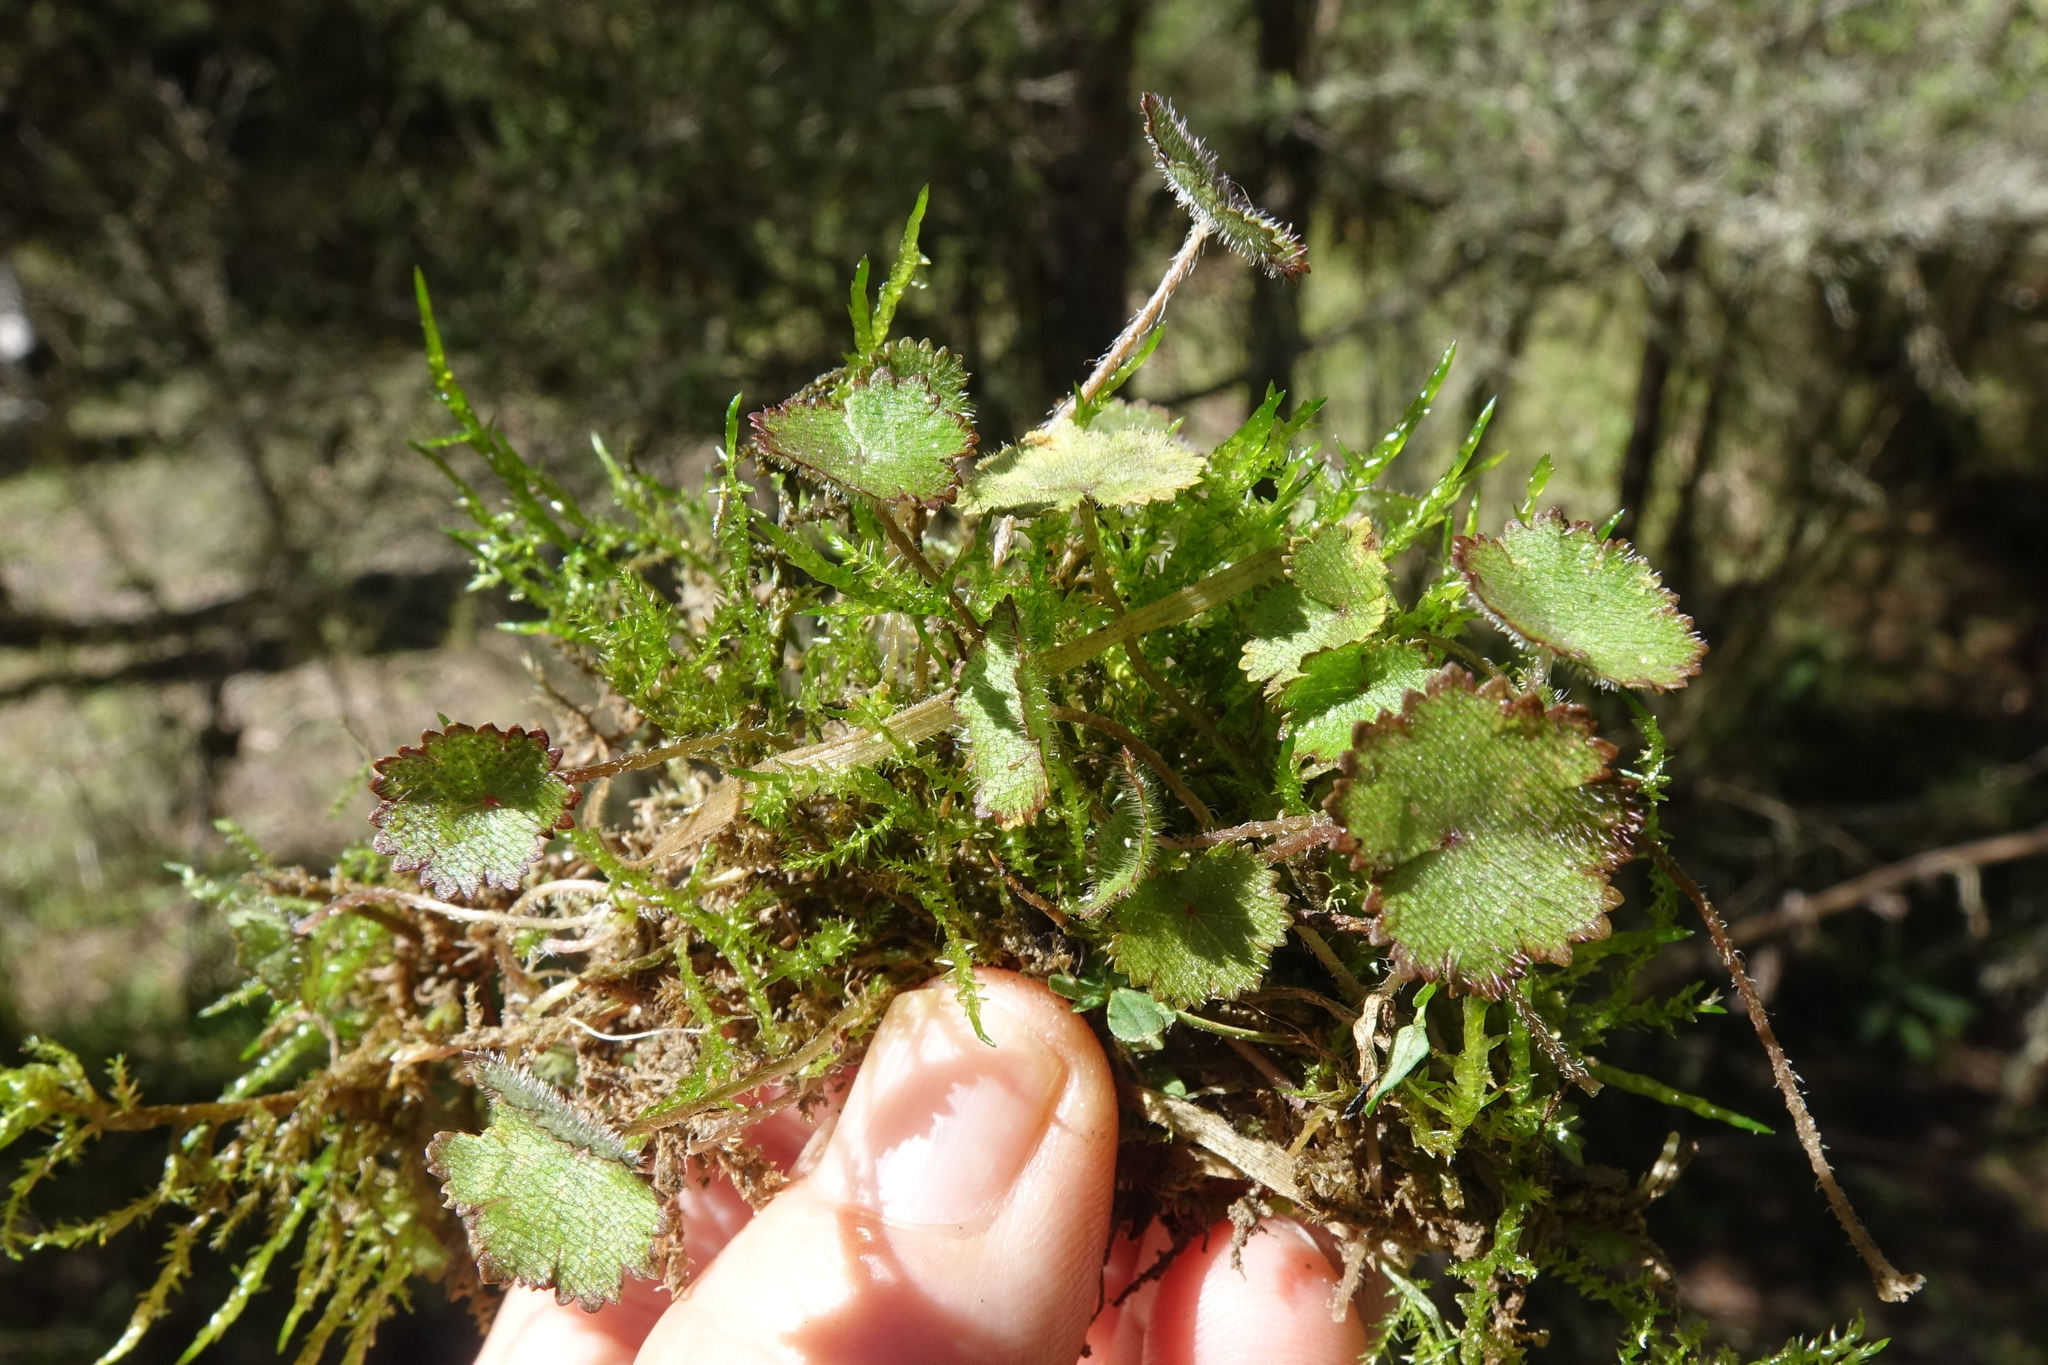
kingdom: Plantae
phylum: Tracheophyta
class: Magnoliopsida
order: Apiales
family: Araliaceae
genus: Hydrocotyle
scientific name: Hydrocotyle moschata
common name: Hairy pennywort
